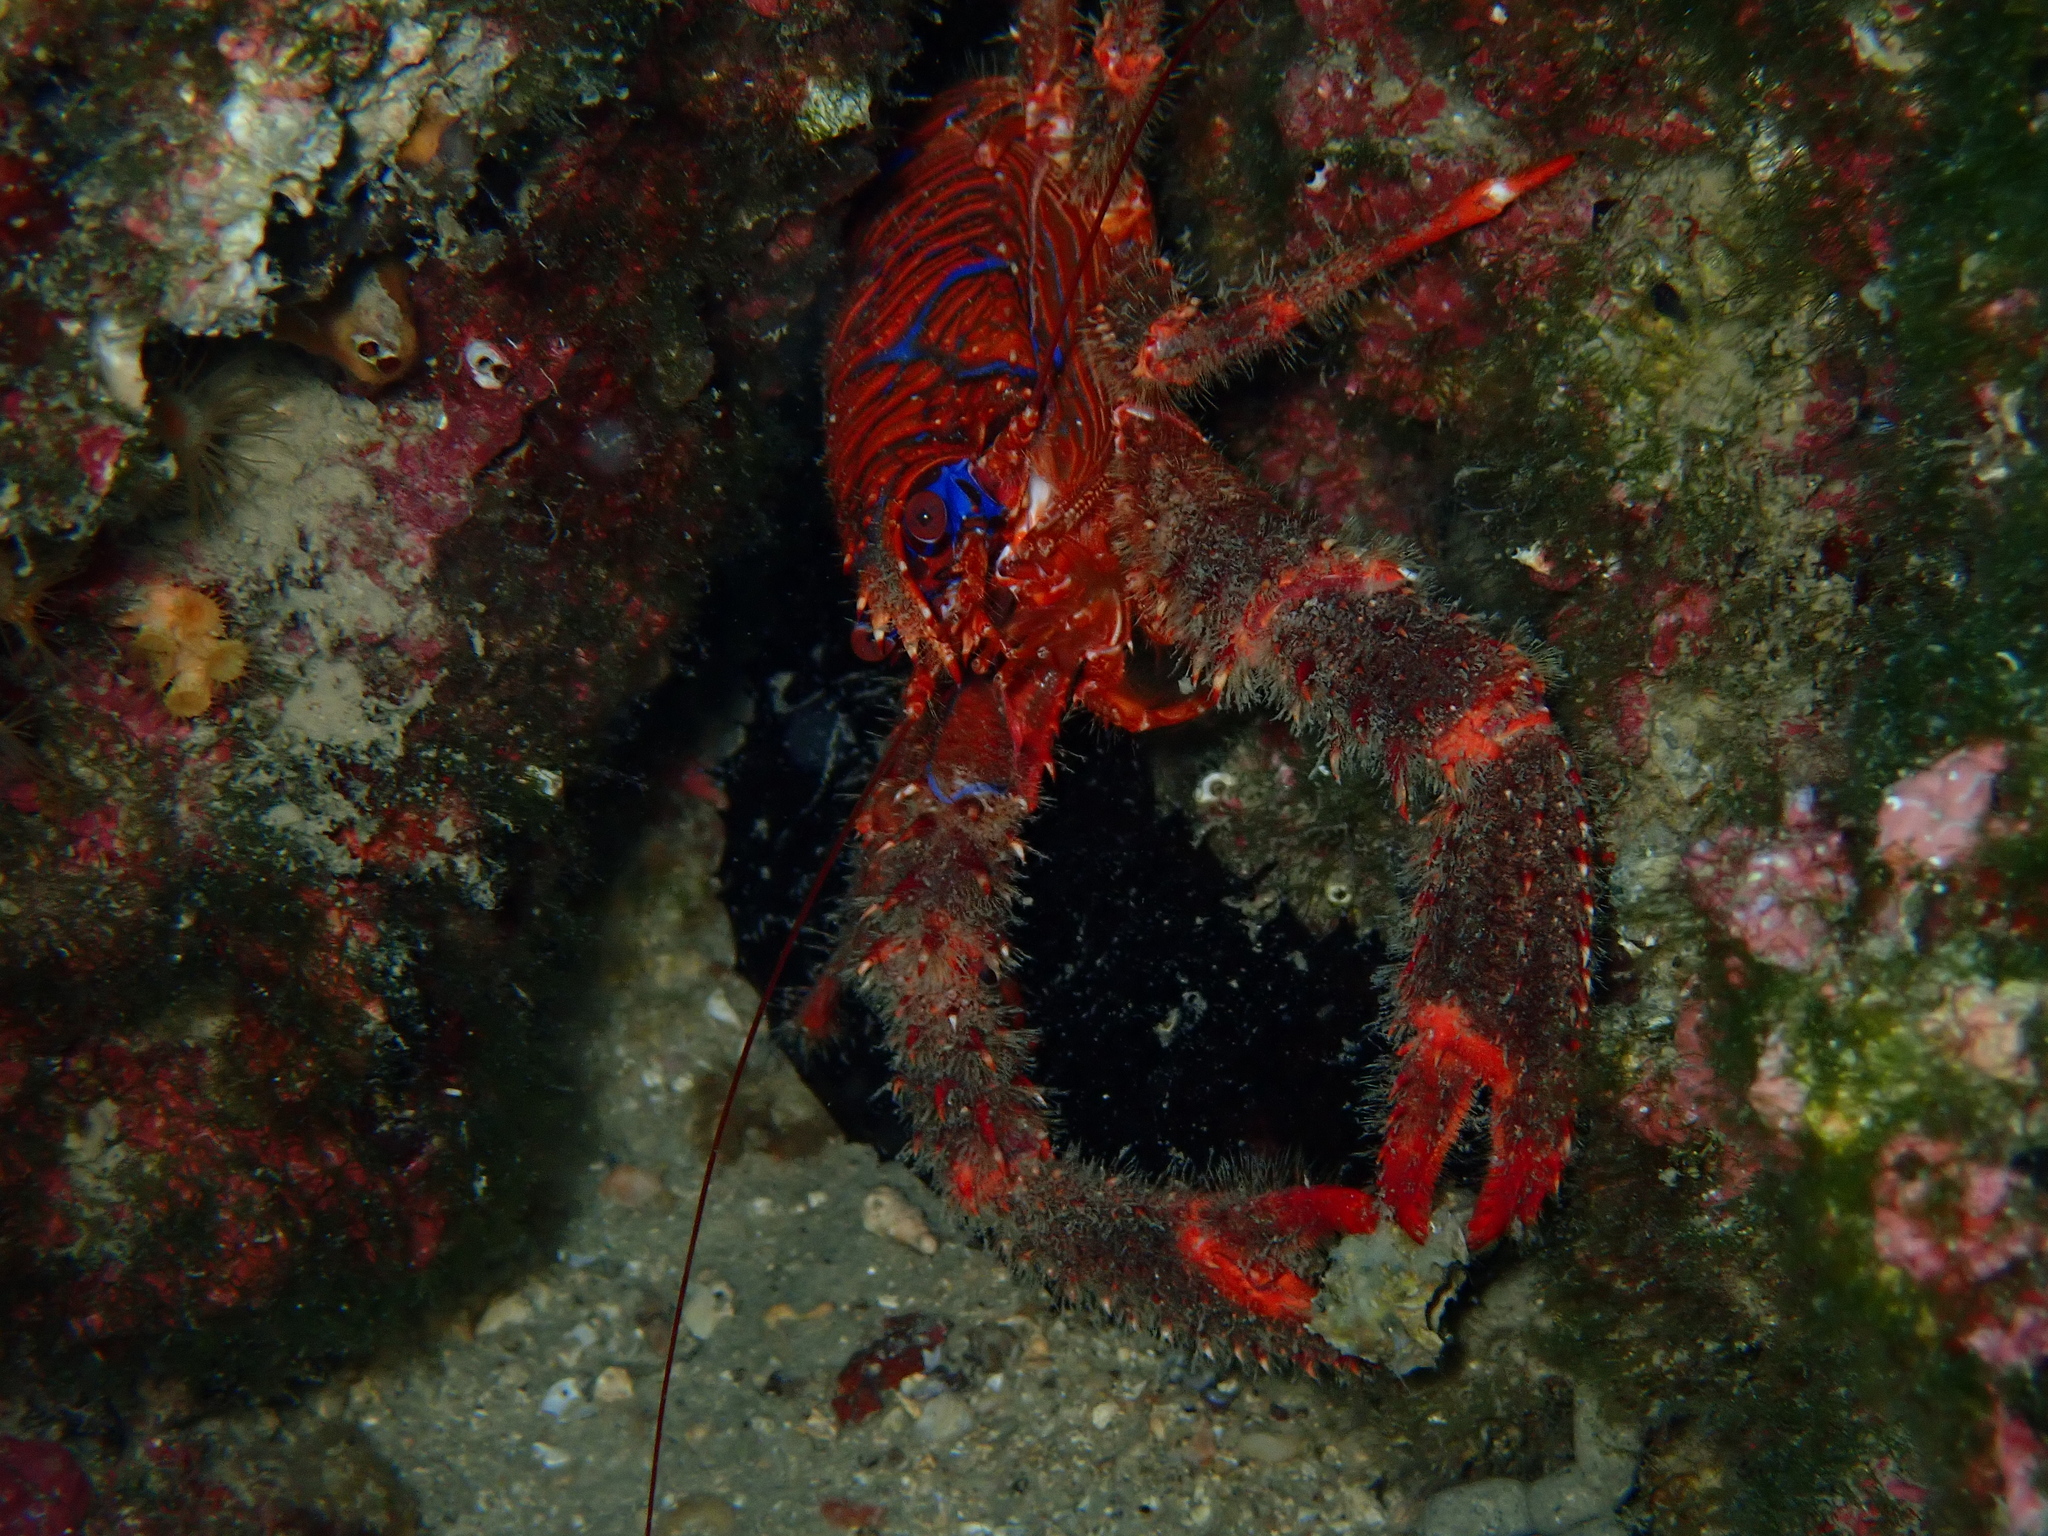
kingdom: Animalia
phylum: Arthropoda
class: Malacostraca
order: Decapoda
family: Galatheidae
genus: Galathea
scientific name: Galathea strigosa
